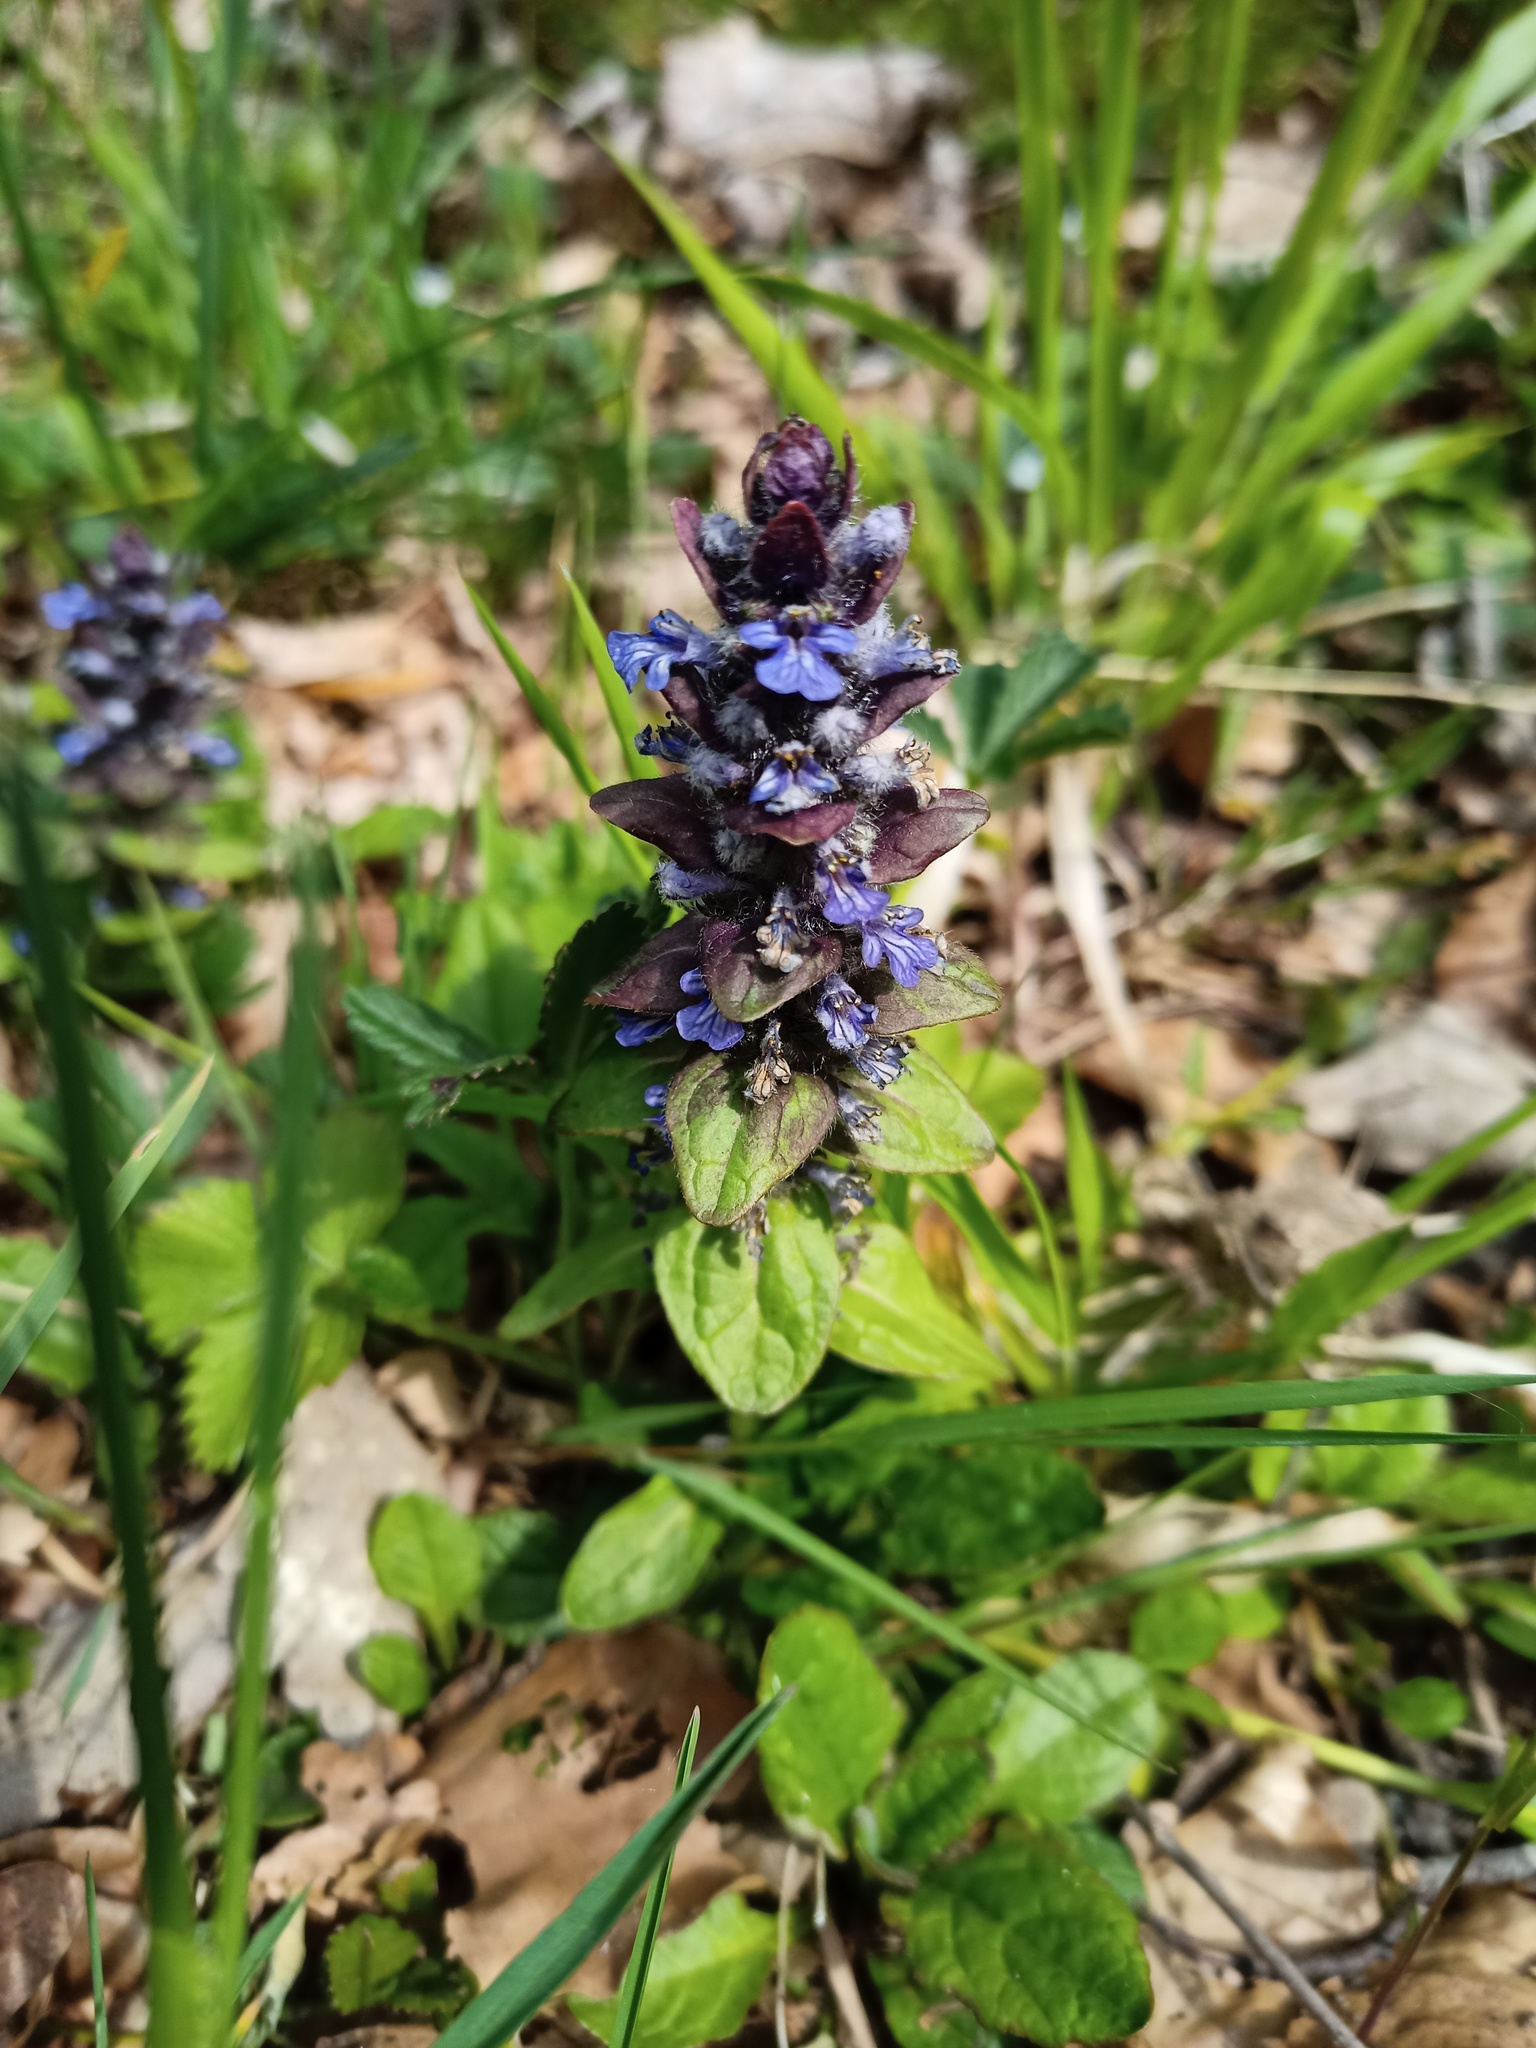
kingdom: Plantae
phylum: Tracheophyta
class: Magnoliopsida
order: Lamiales
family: Lamiaceae
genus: Ajuga
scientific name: Ajuga reptans
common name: Bugle
